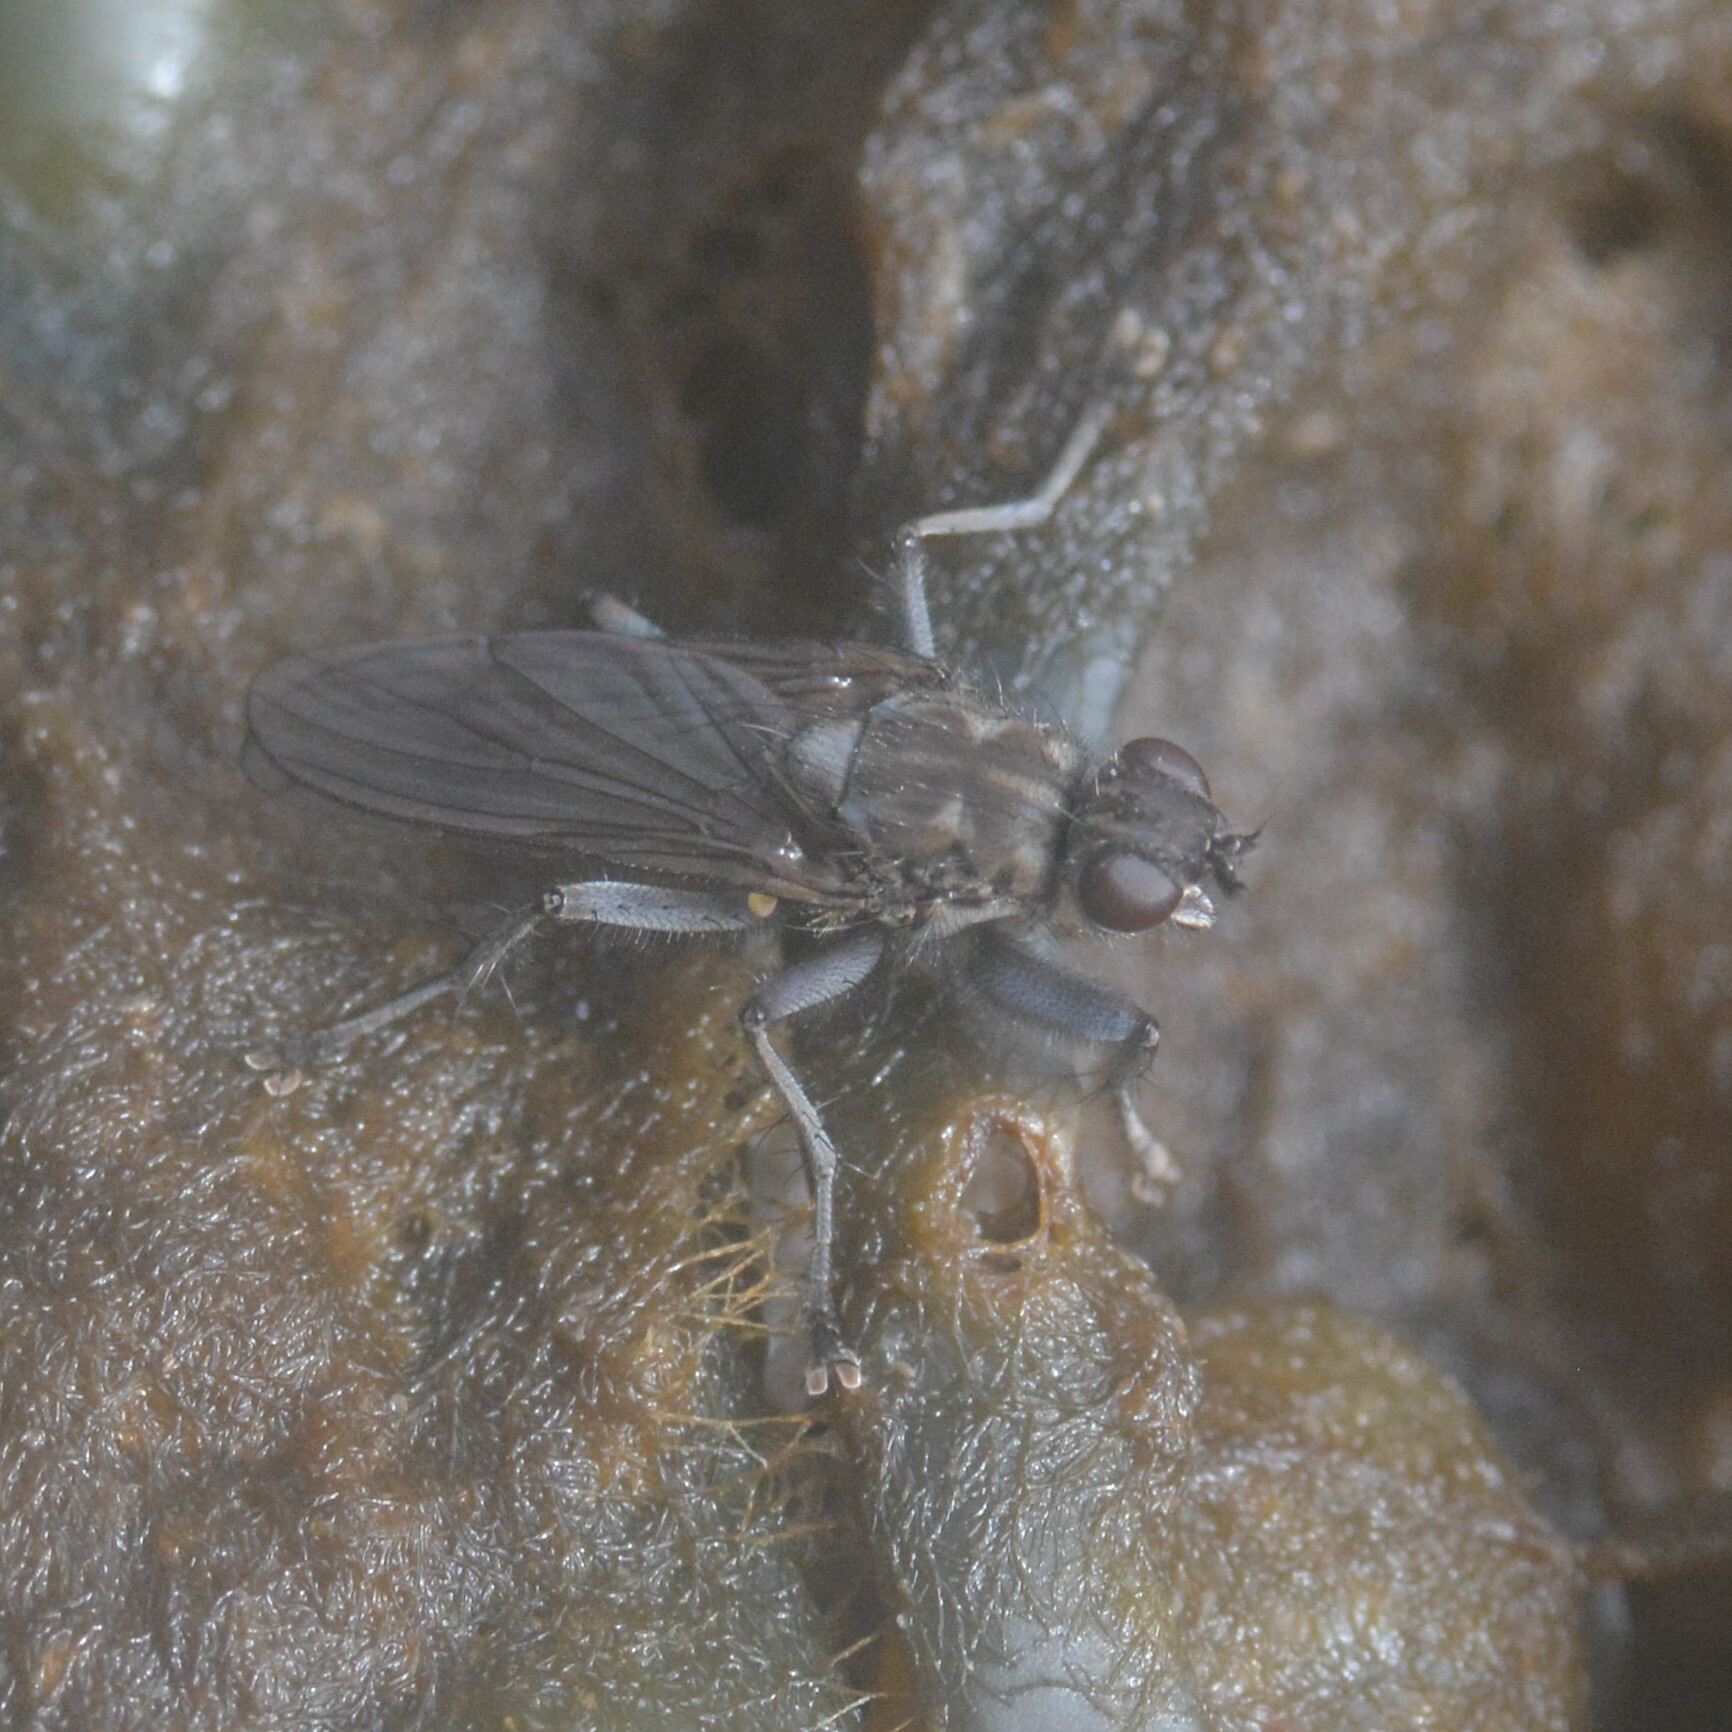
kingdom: Animalia
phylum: Arthropoda
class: Insecta
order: Diptera
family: Scathophagidae
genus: Ceratinostoma
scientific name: Ceratinostoma ostiorum
